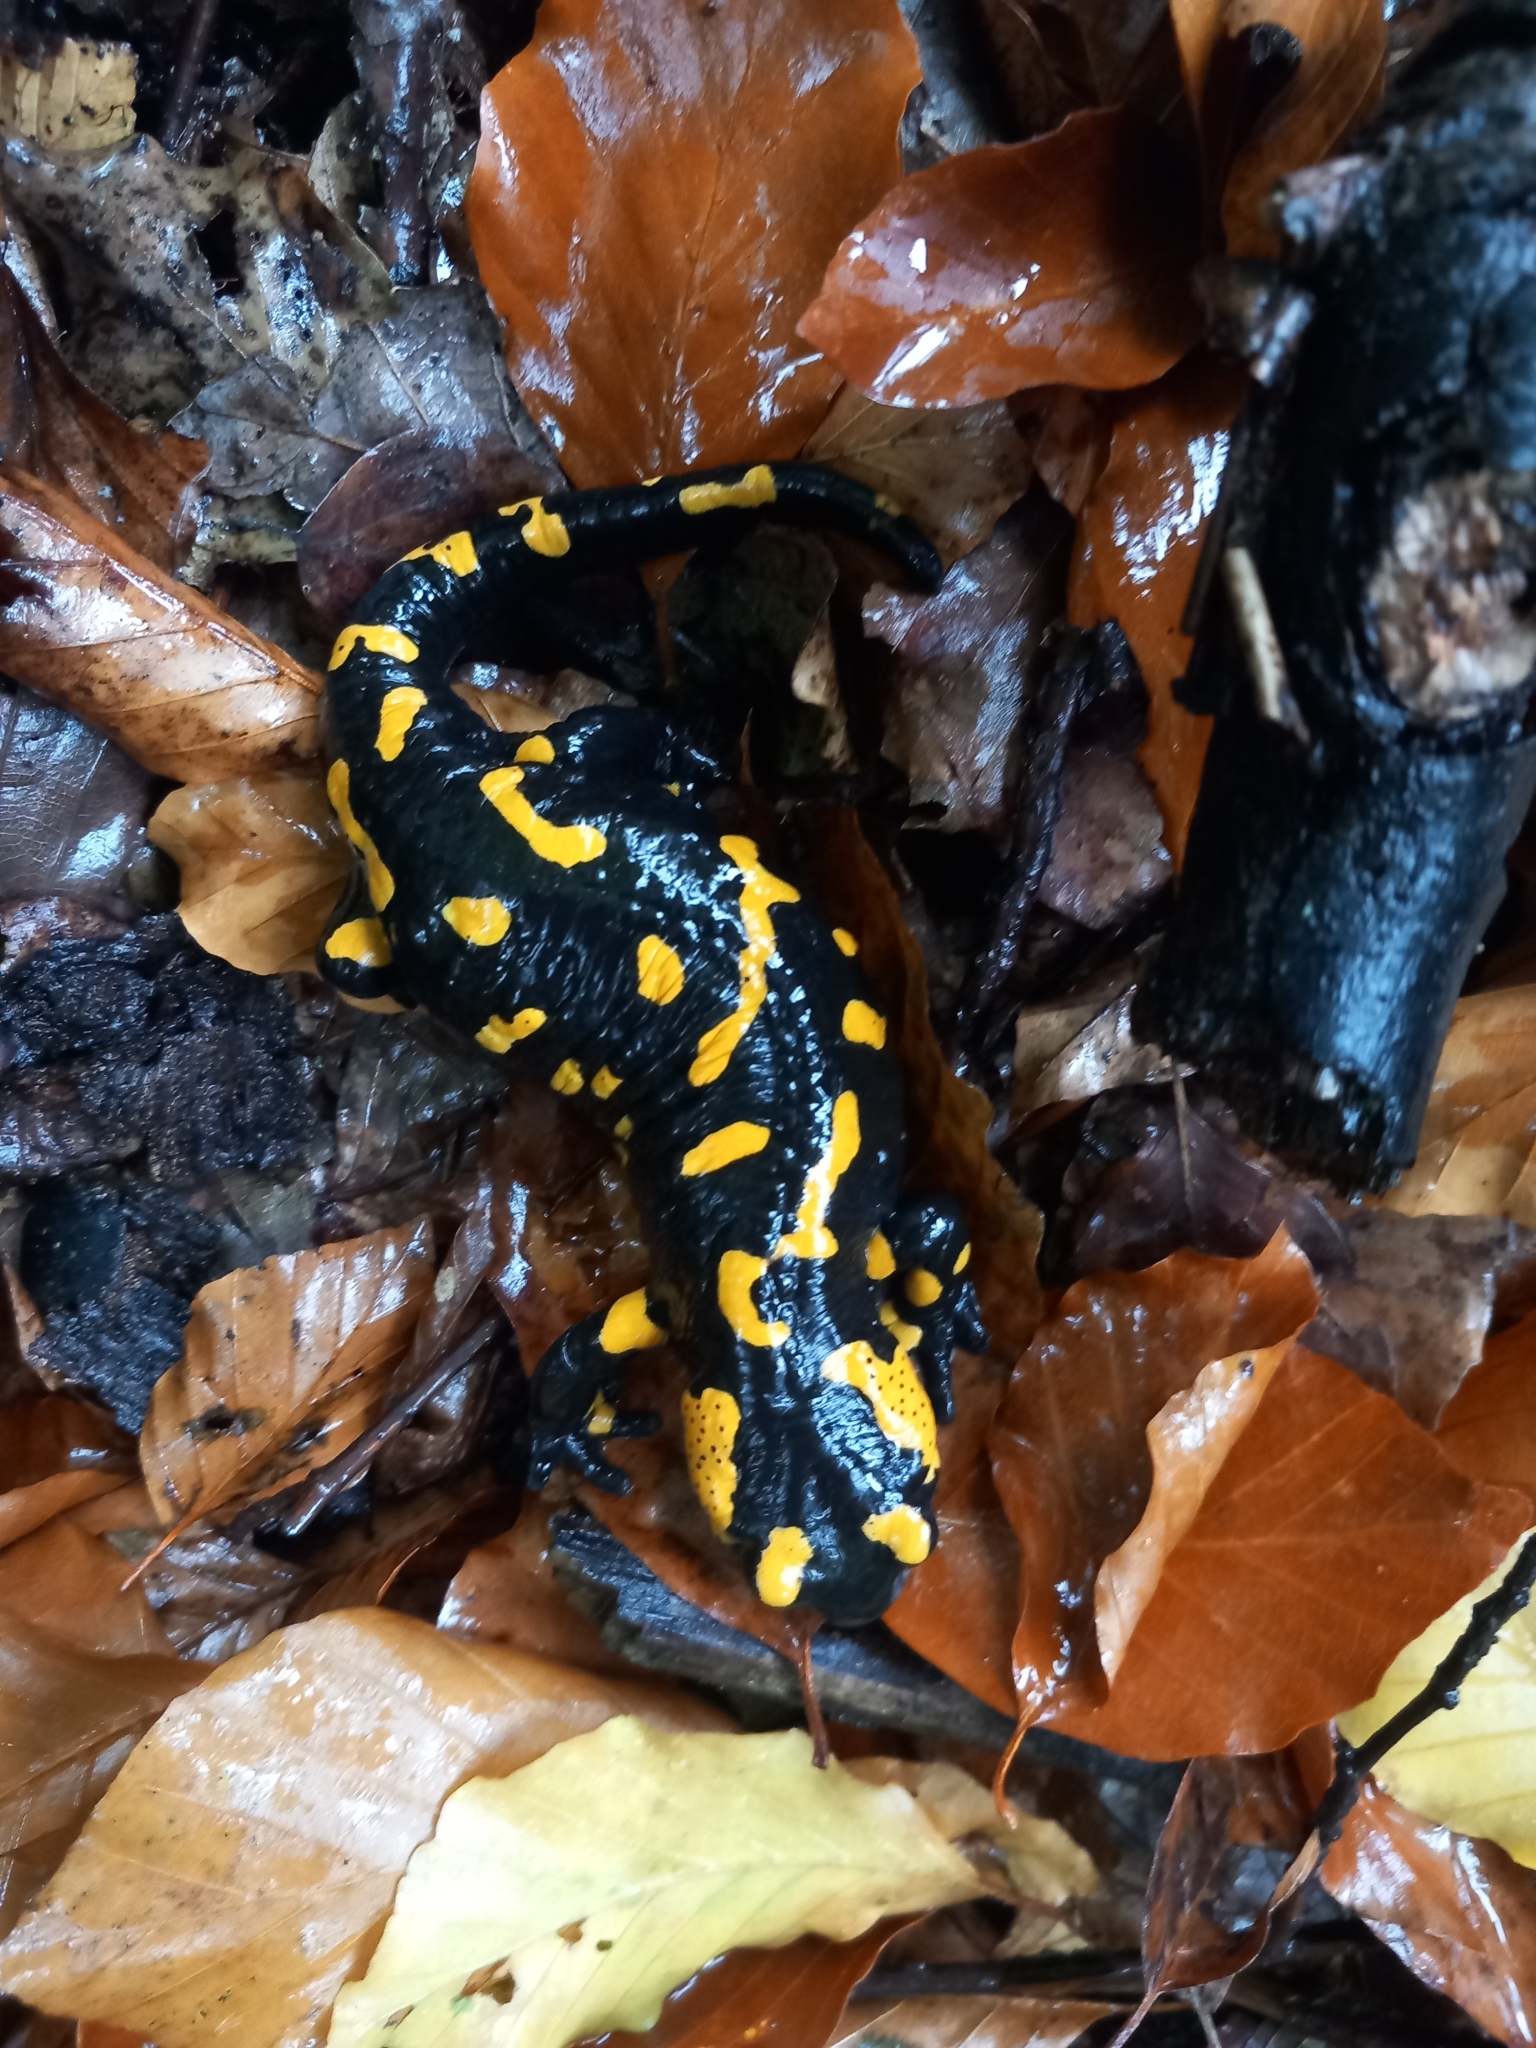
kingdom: Animalia
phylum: Chordata
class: Amphibia
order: Caudata
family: Salamandridae
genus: Salamandra
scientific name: Salamandra salamandra
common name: Fire salamander
